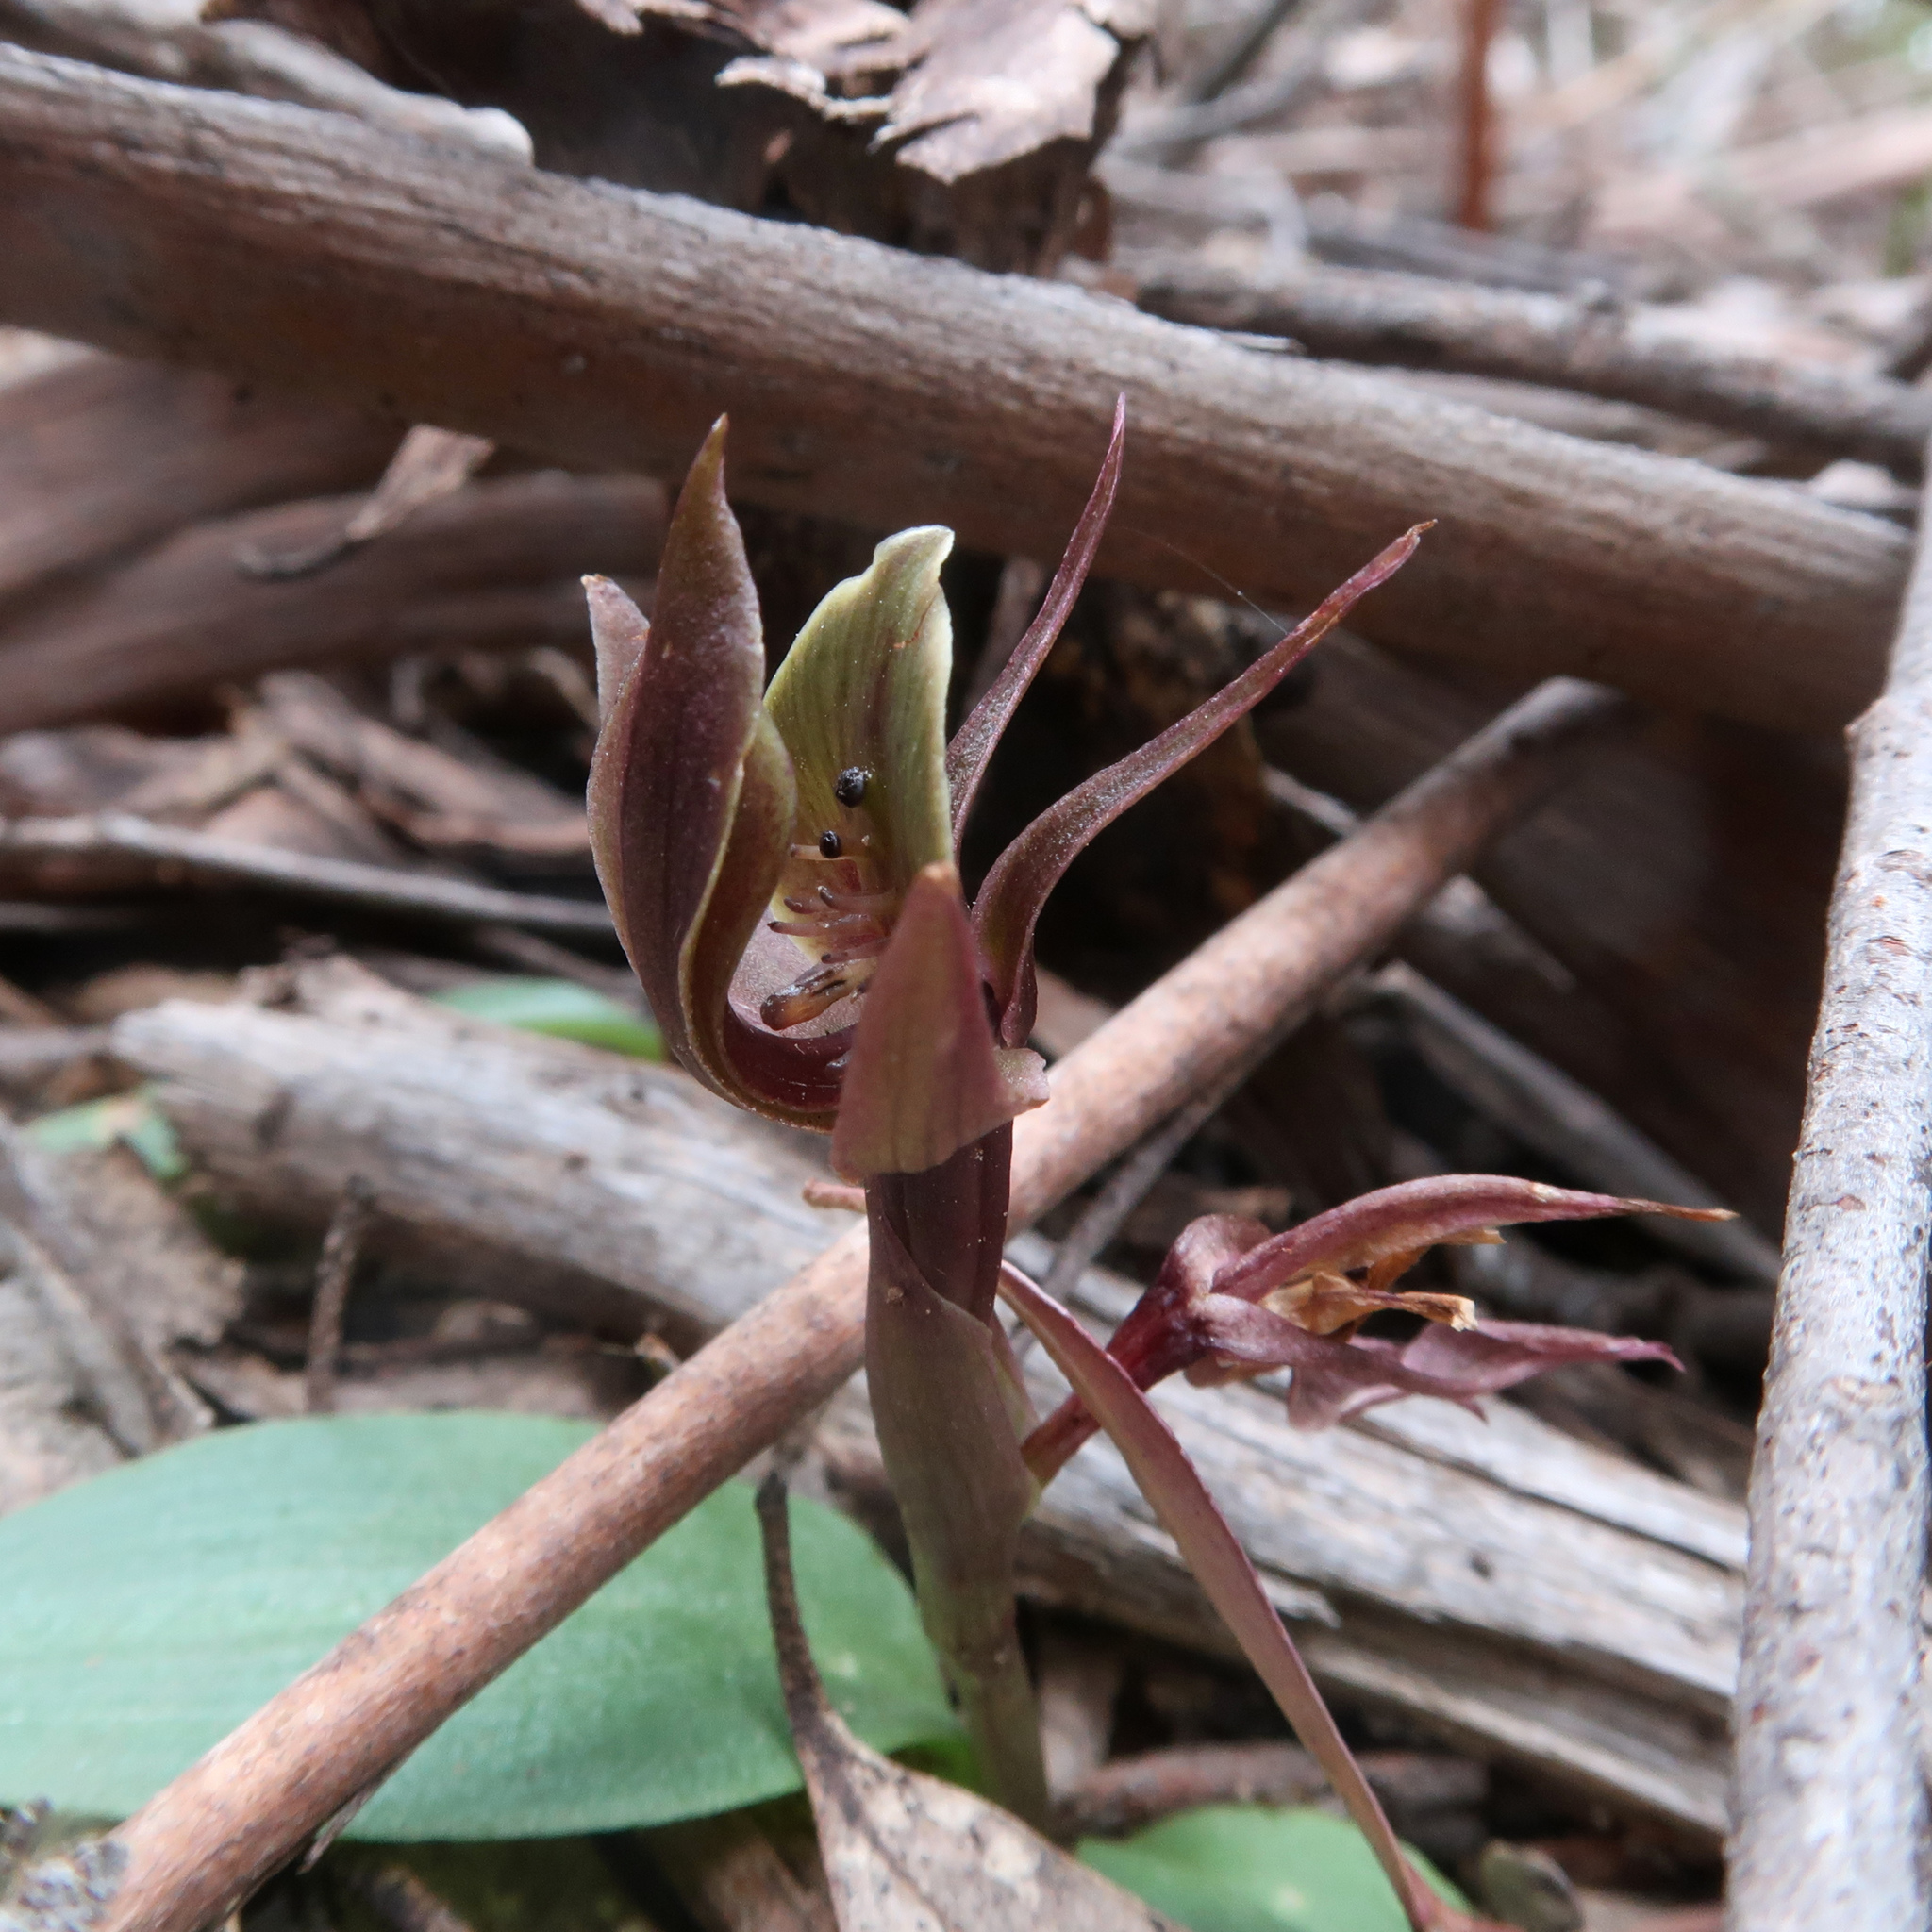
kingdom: Plantae
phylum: Tracheophyta
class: Liliopsida
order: Asparagales
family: Orchidaceae
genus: Chiloglottis
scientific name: Chiloglottis triceratops
